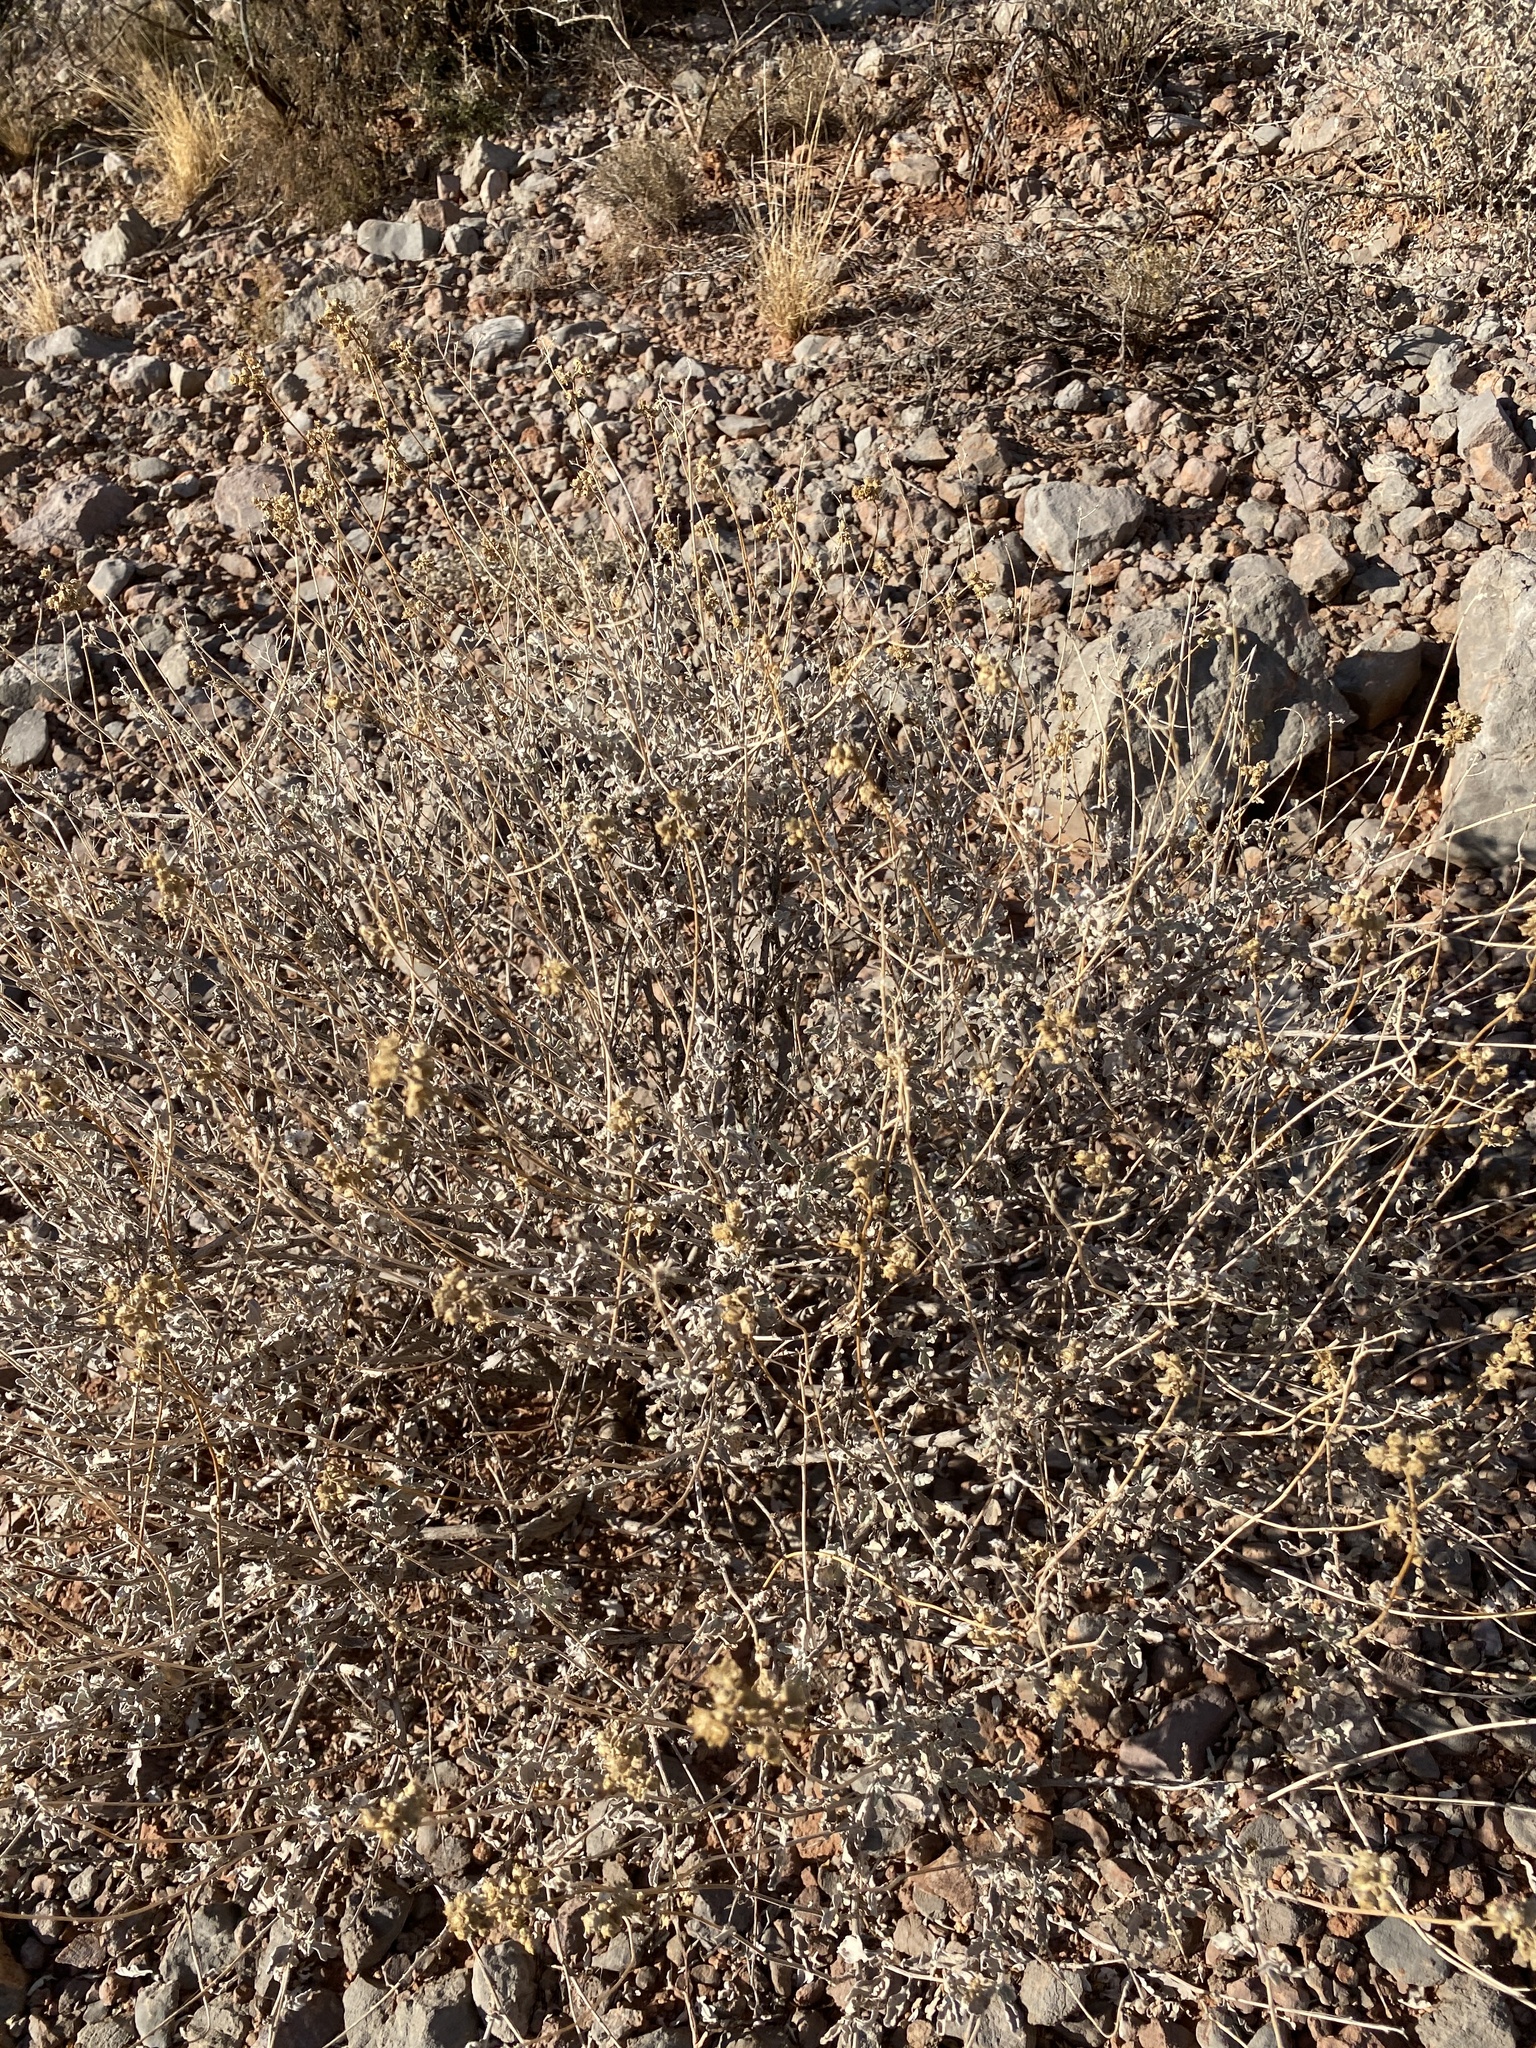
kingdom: Plantae
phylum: Tracheophyta
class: Magnoliopsida
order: Asterales
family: Asteraceae
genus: Parthenium
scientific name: Parthenium incanum
